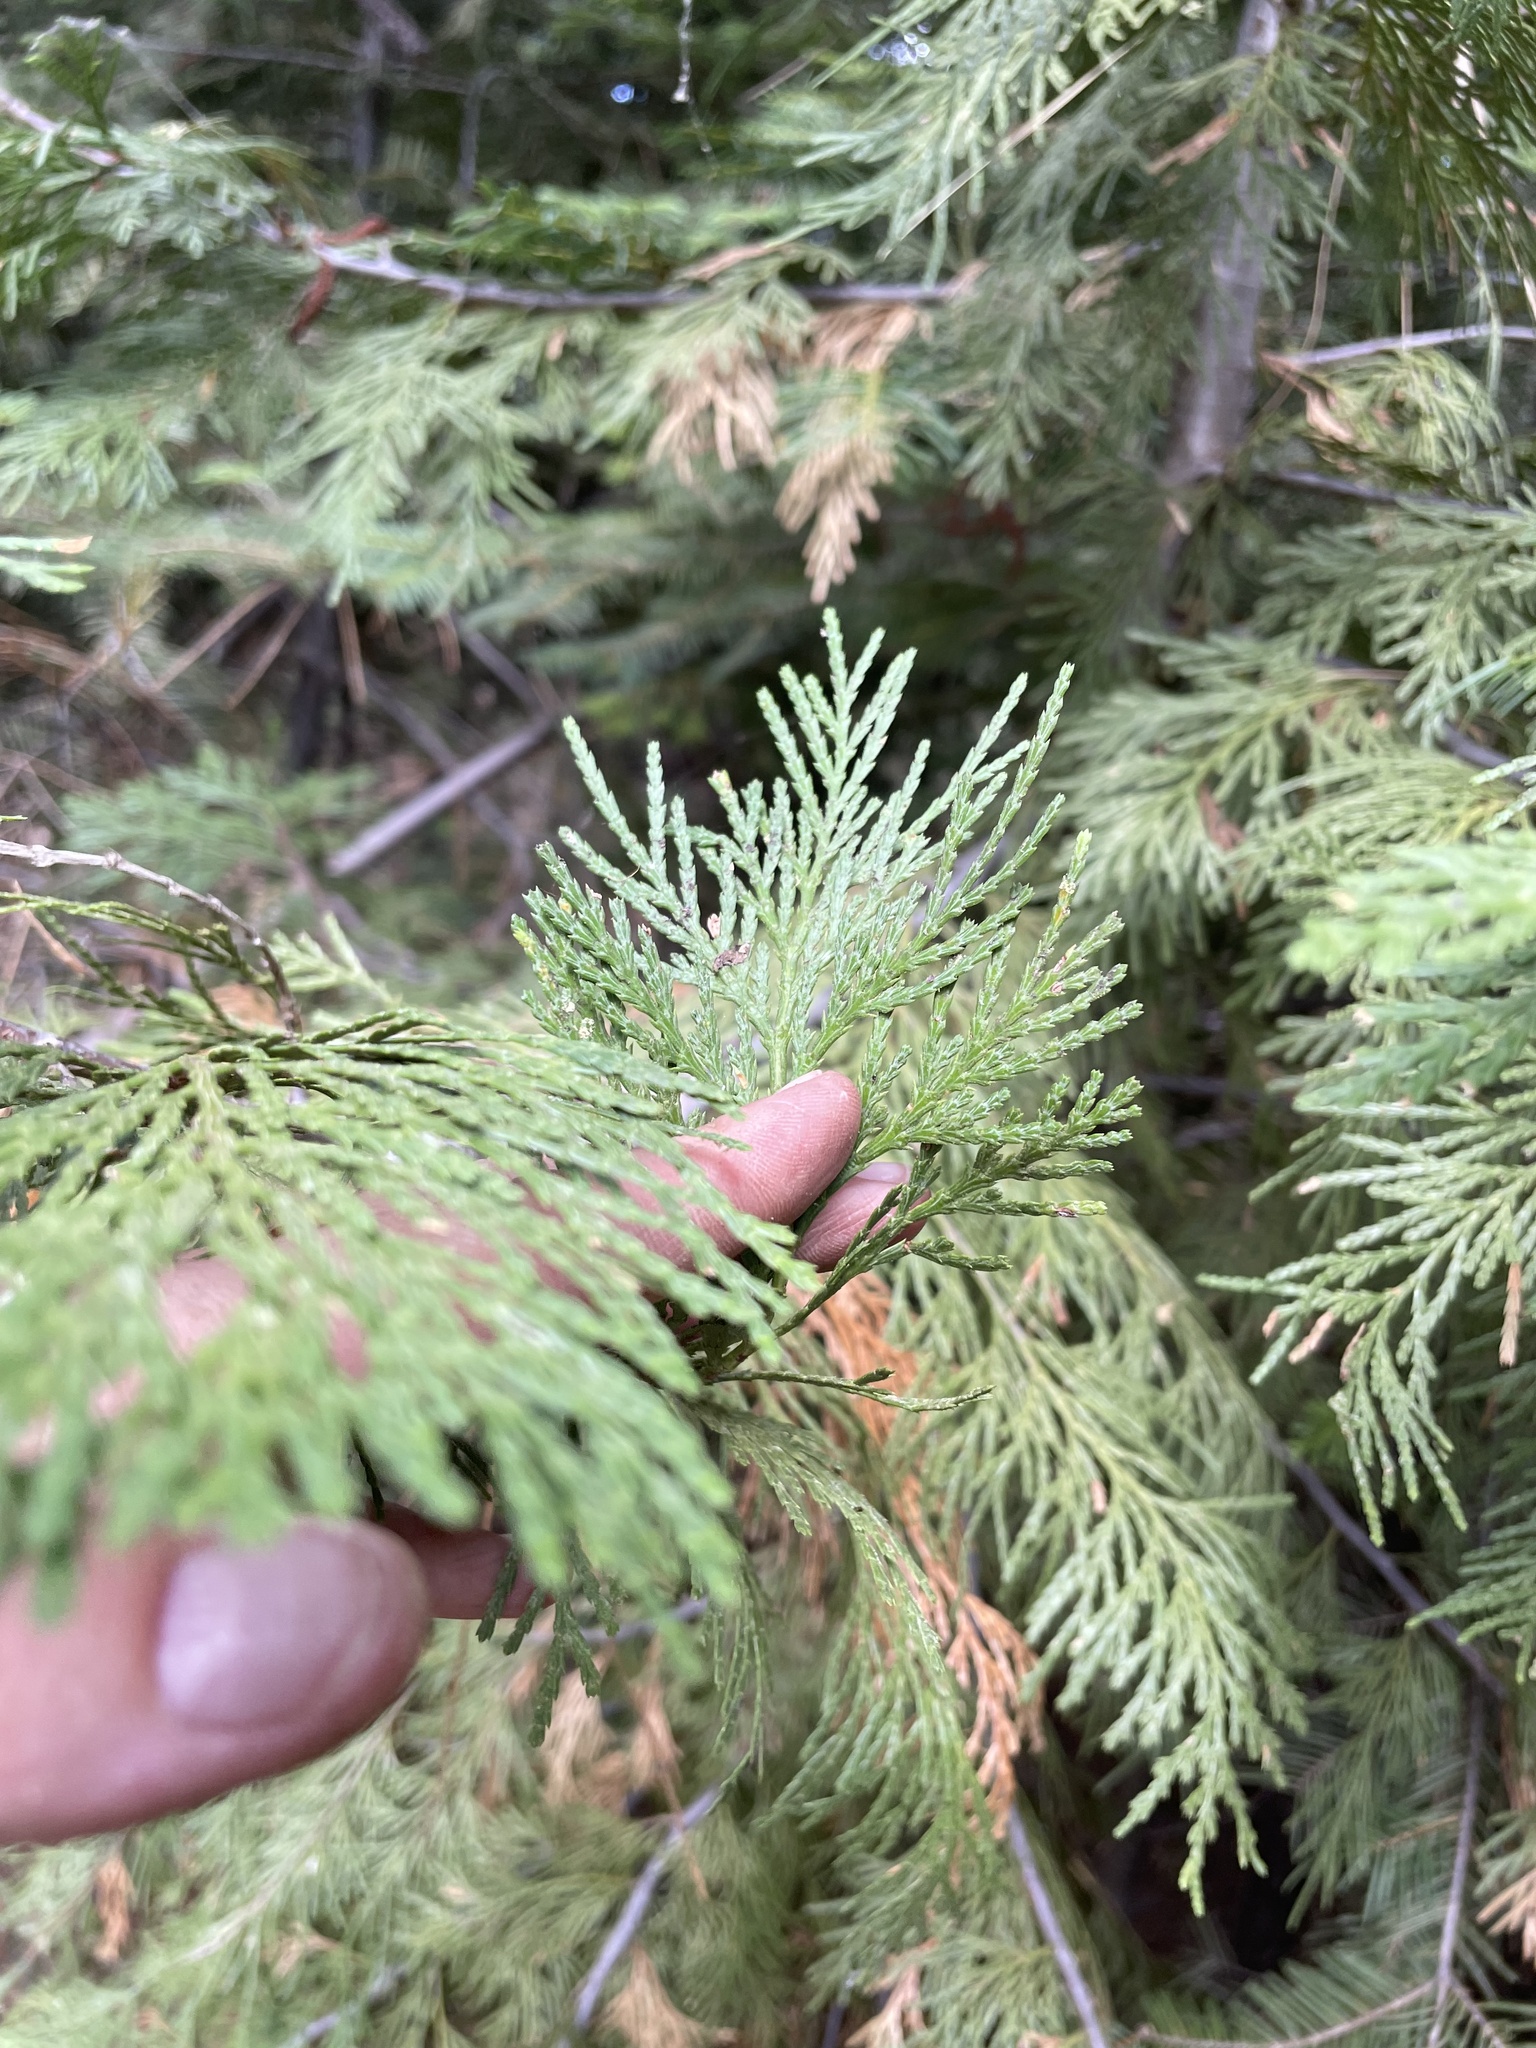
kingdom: Plantae
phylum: Tracheophyta
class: Pinopsida
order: Pinales
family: Cupressaceae
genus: Calocedrus
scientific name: Calocedrus decurrens
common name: Californian incense-cedar
